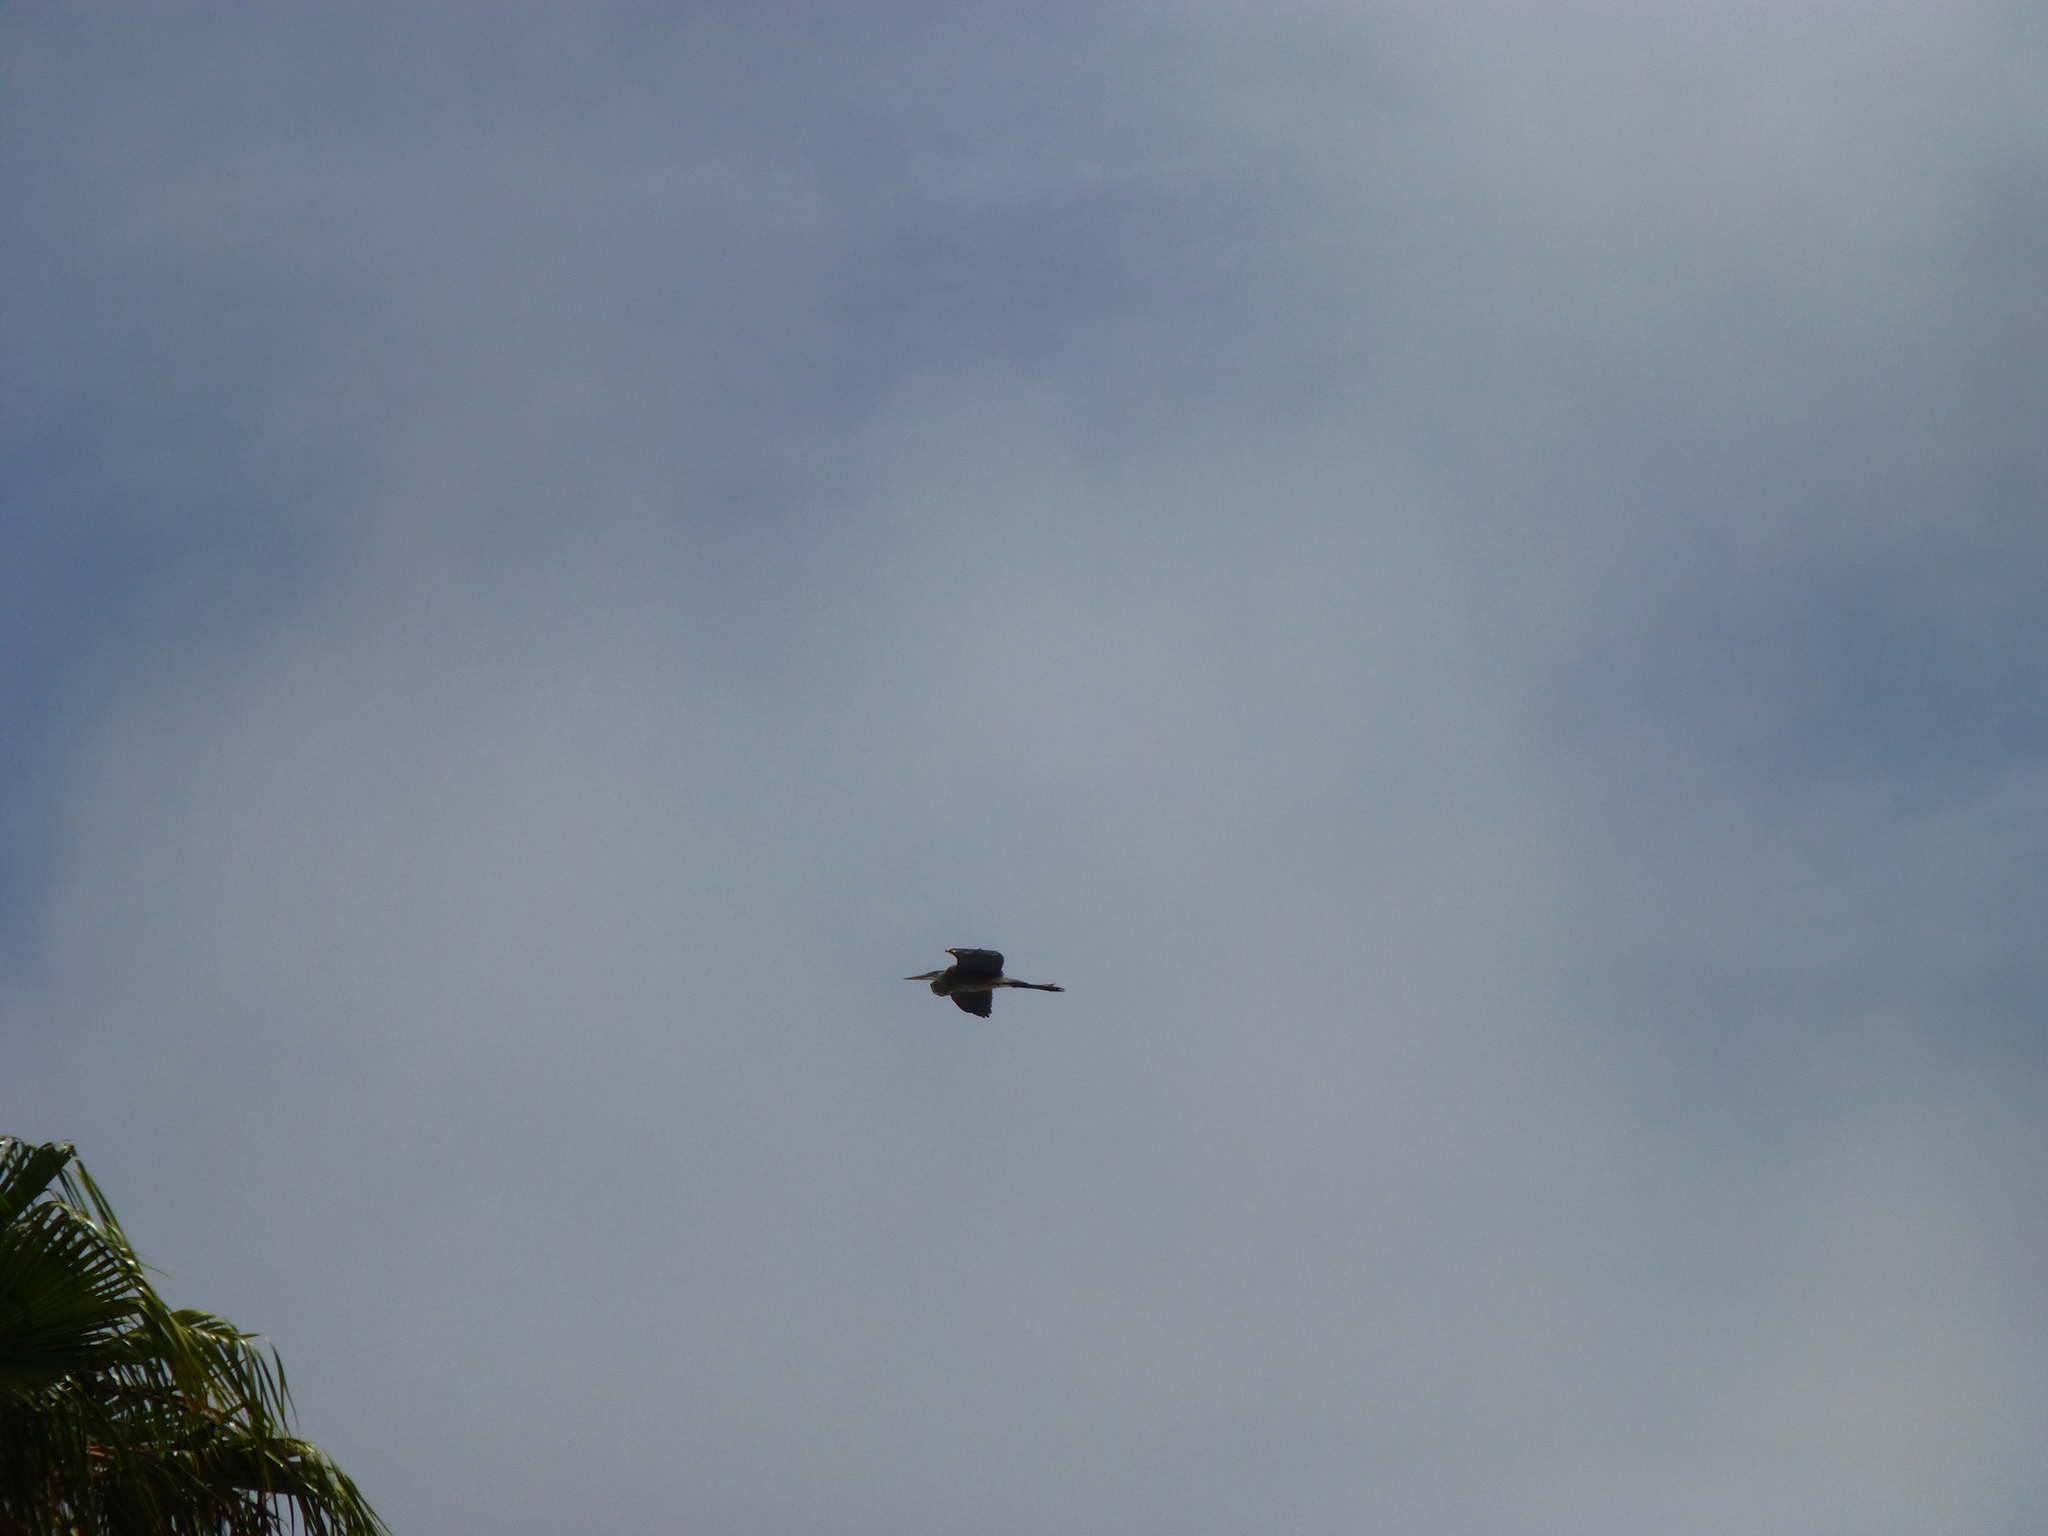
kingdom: Animalia
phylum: Chordata
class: Aves
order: Pelecaniformes
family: Ardeidae
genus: Ardea
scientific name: Ardea herodias
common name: Great blue heron
